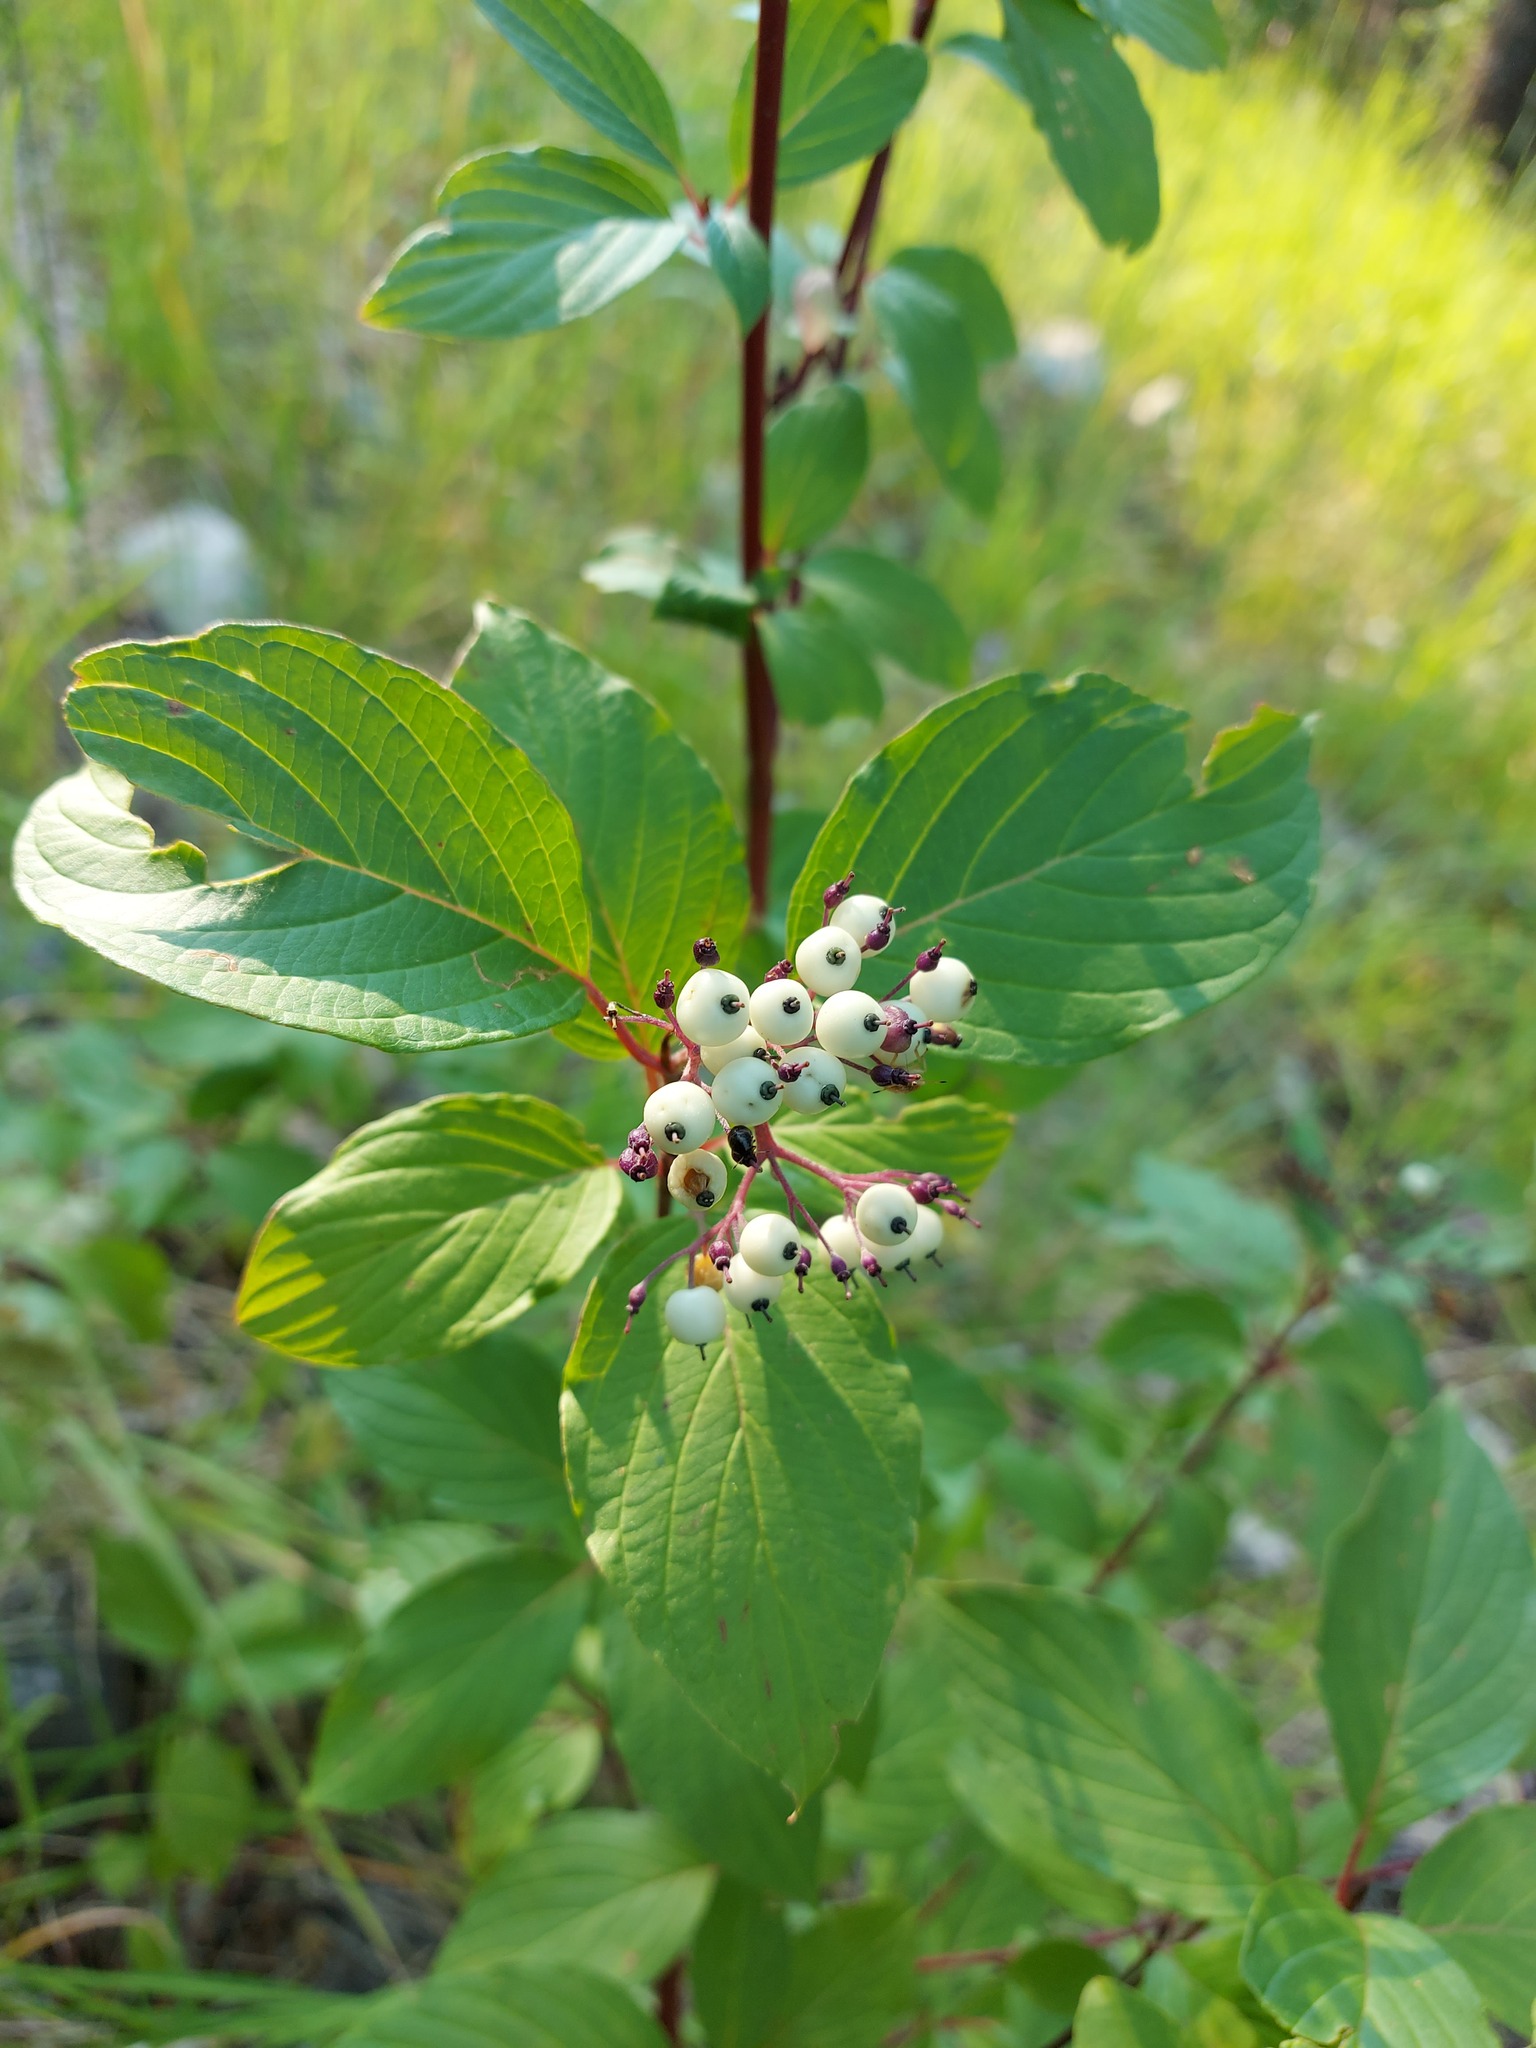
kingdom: Plantae
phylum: Tracheophyta
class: Magnoliopsida
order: Cornales
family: Cornaceae
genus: Cornus
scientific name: Cornus sericea
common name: Red-osier dogwood
